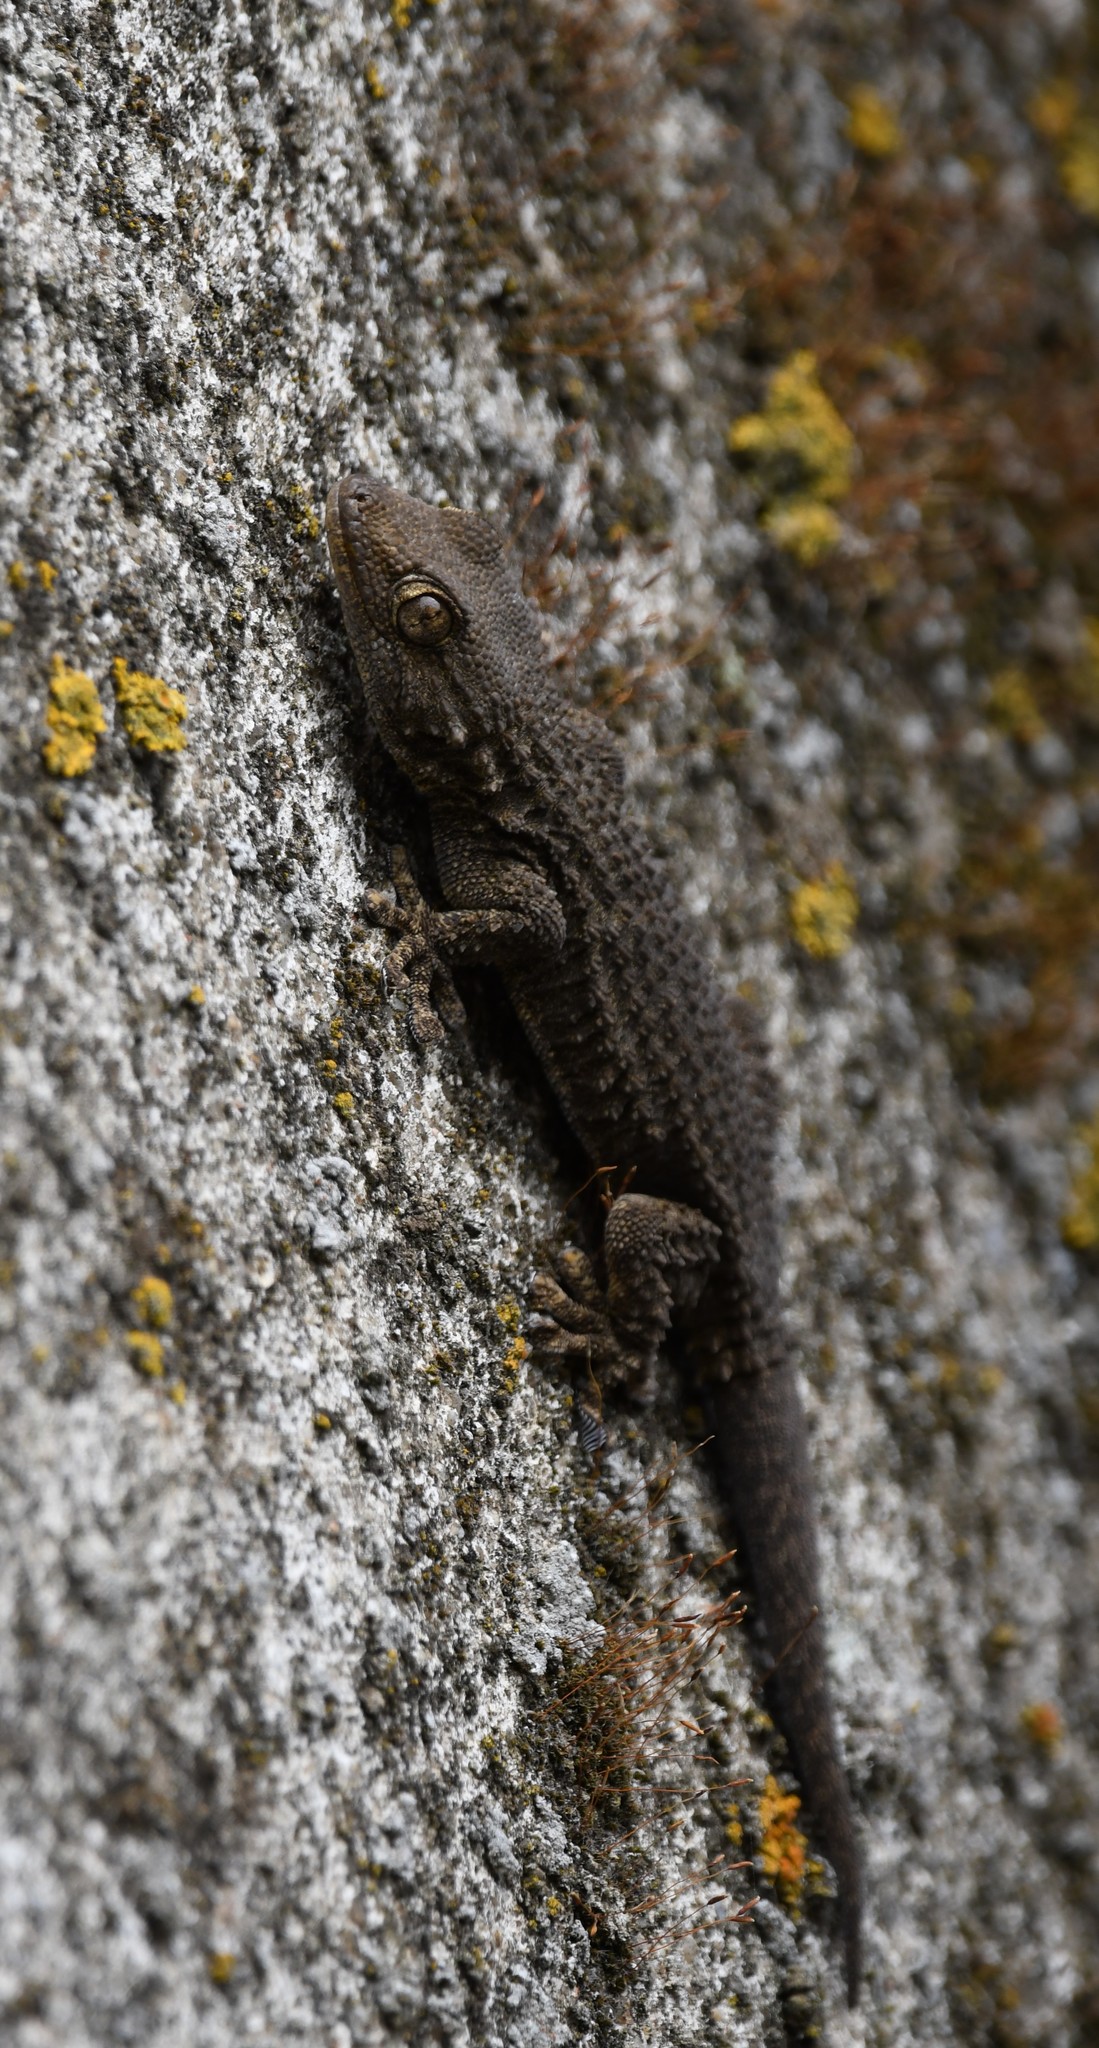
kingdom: Animalia
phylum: Chordata
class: Squamata
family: Phyllodactylidae
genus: Tarentola
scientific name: Tarentola mauritanica
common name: Moorish gecko
